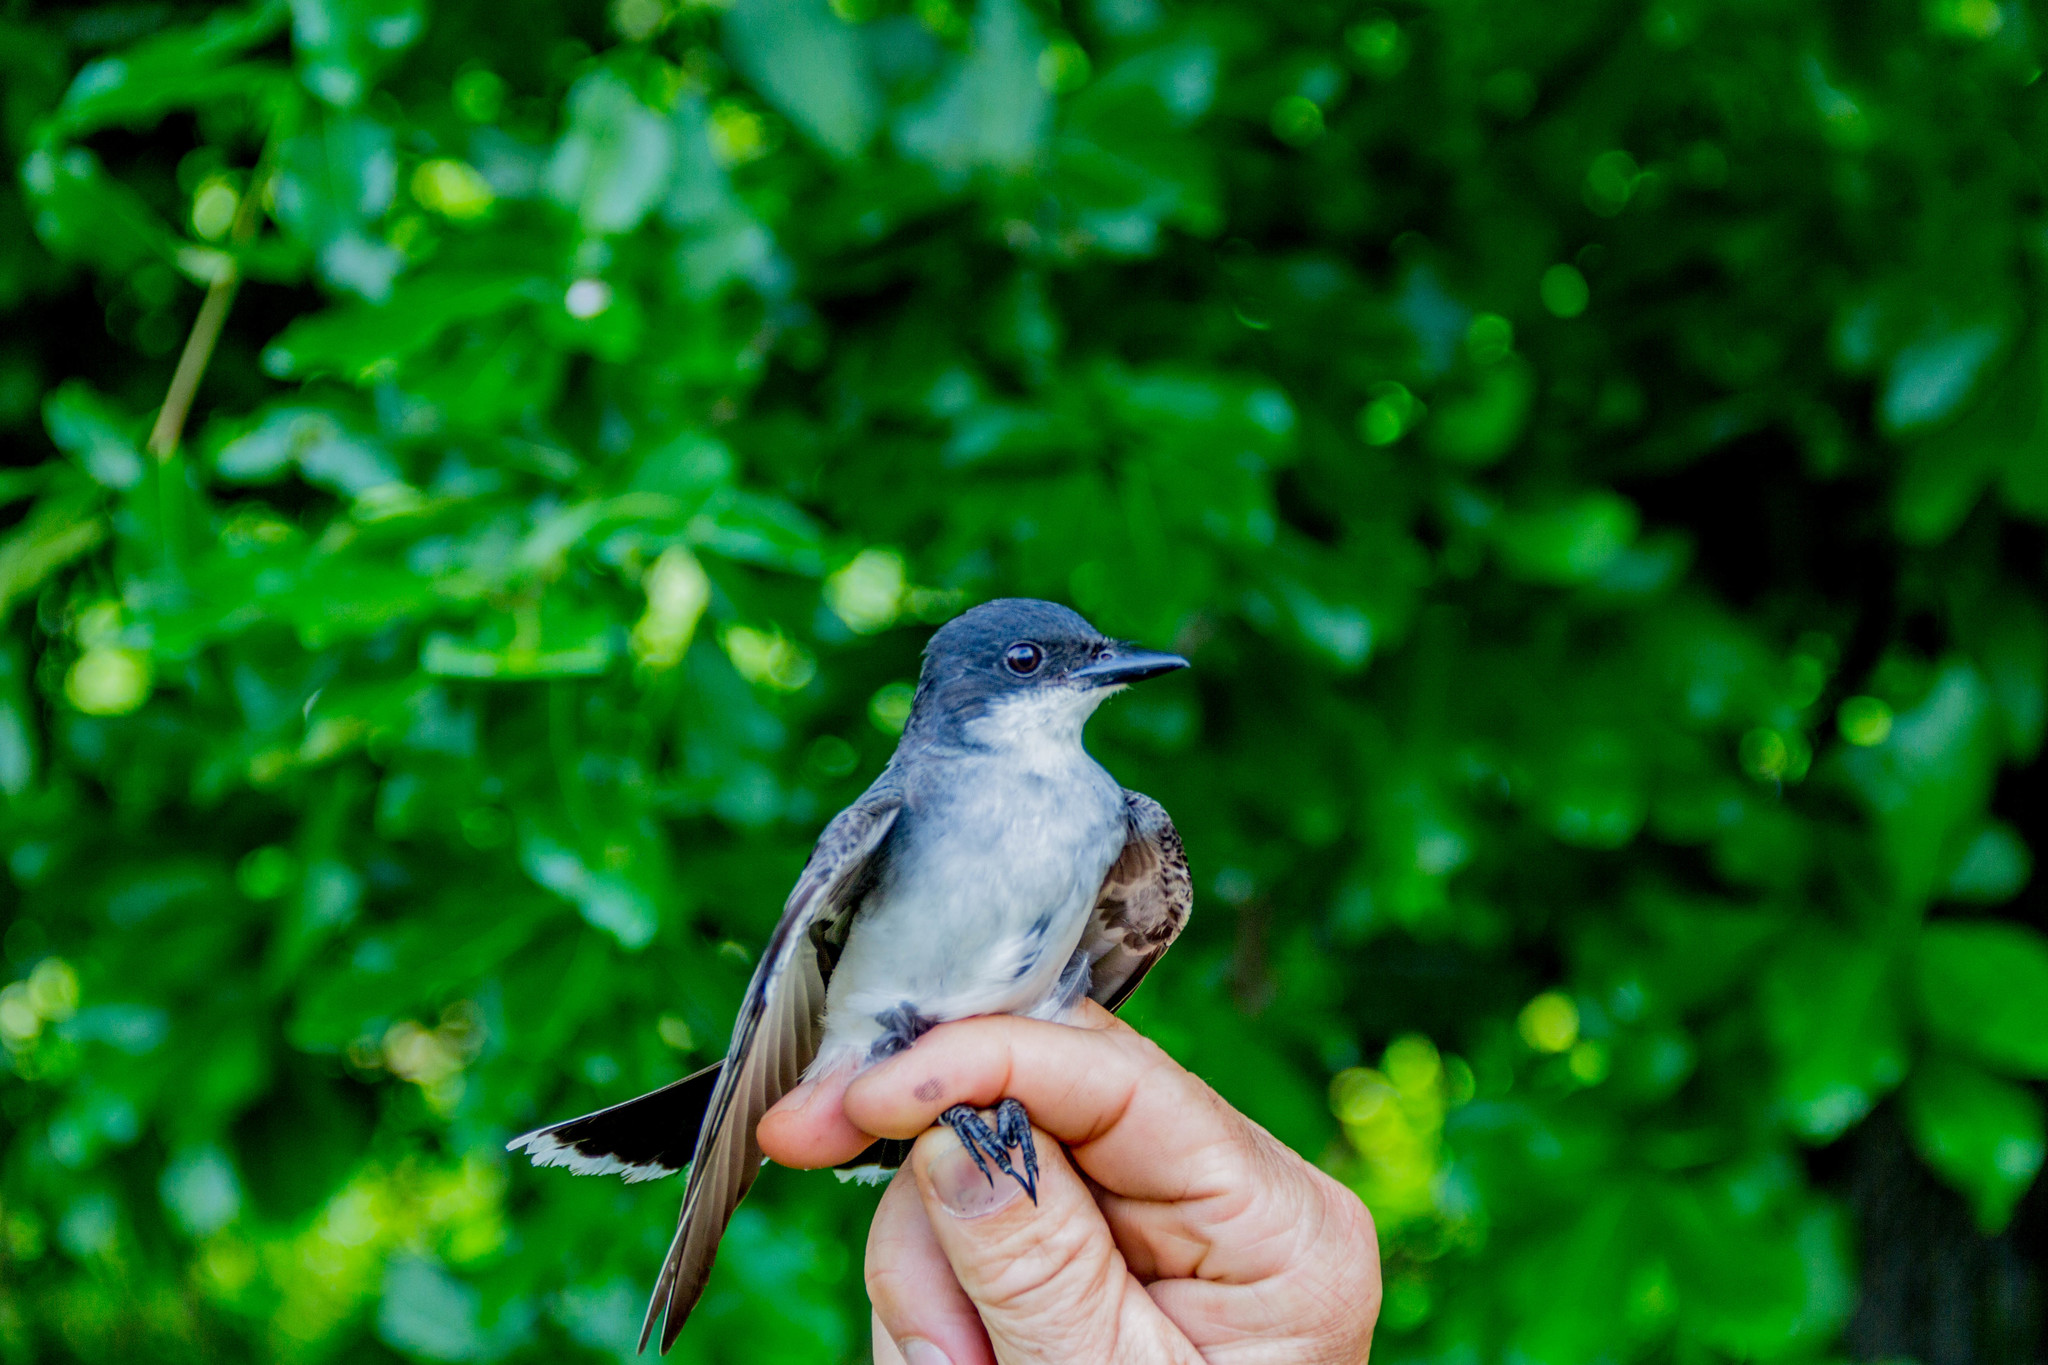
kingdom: Animalia
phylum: Chordata
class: Aves
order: Passeriformes
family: Tyrannidae
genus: Tyrannus
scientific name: Tyrannus tyrannus
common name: Eastern kingbird
